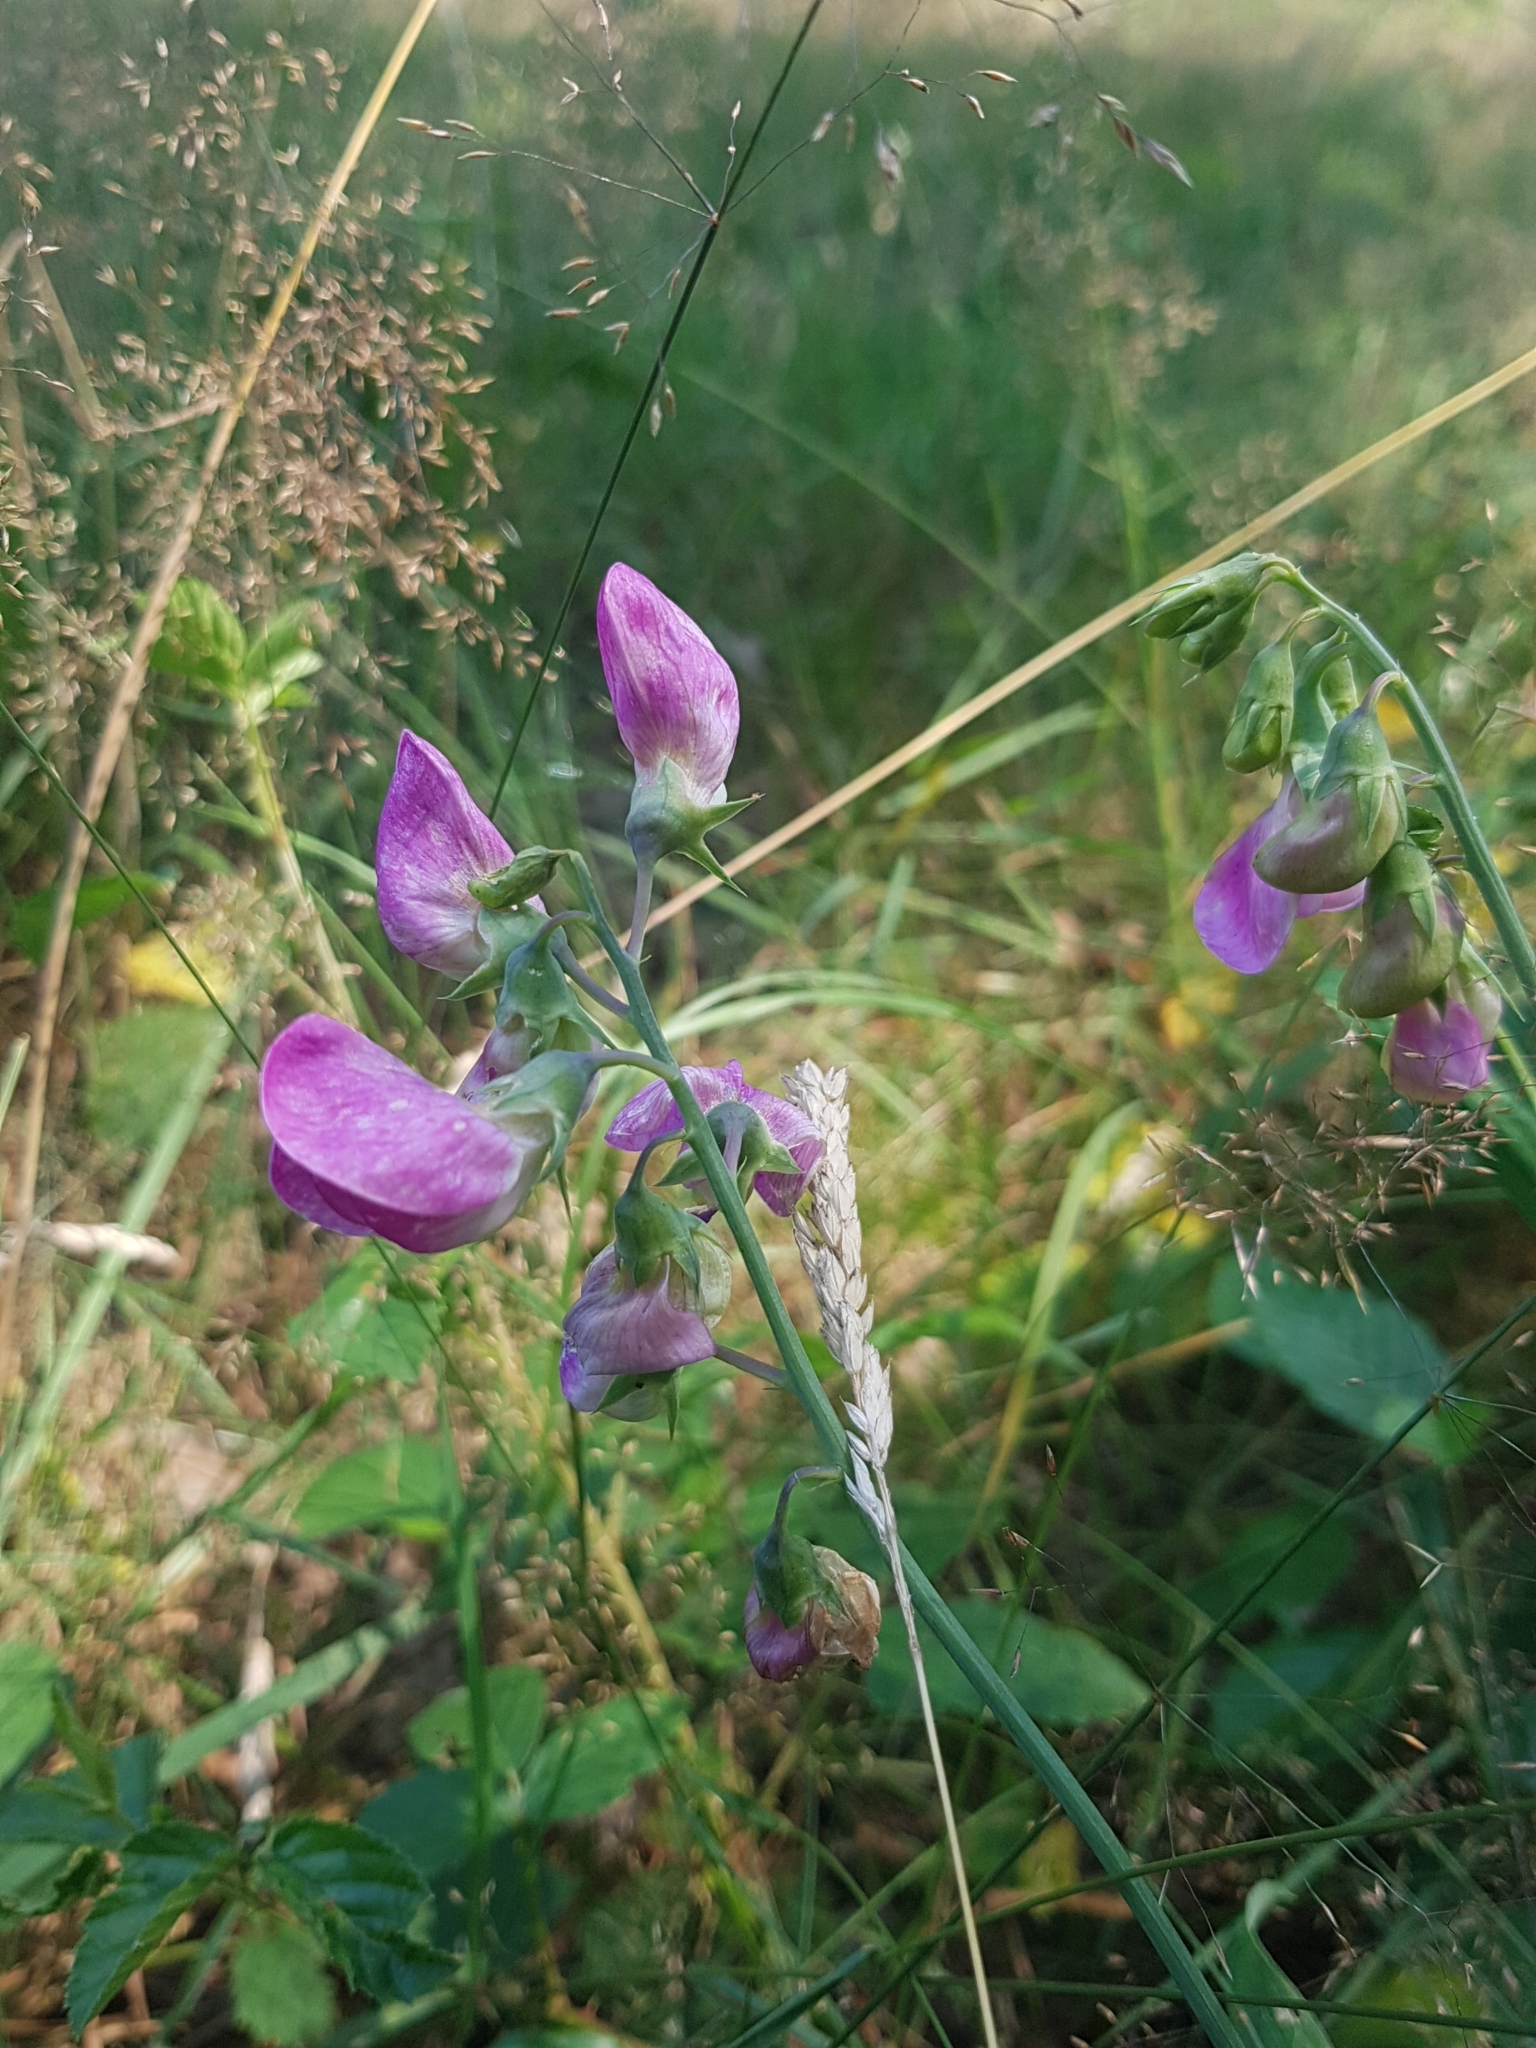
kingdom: Plantae
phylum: Tracheophyta
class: Magnoliopsida
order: Fabales
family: Fabaceae
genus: Lathyrus
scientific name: Lathyrus latifolius
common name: Perennial pea
